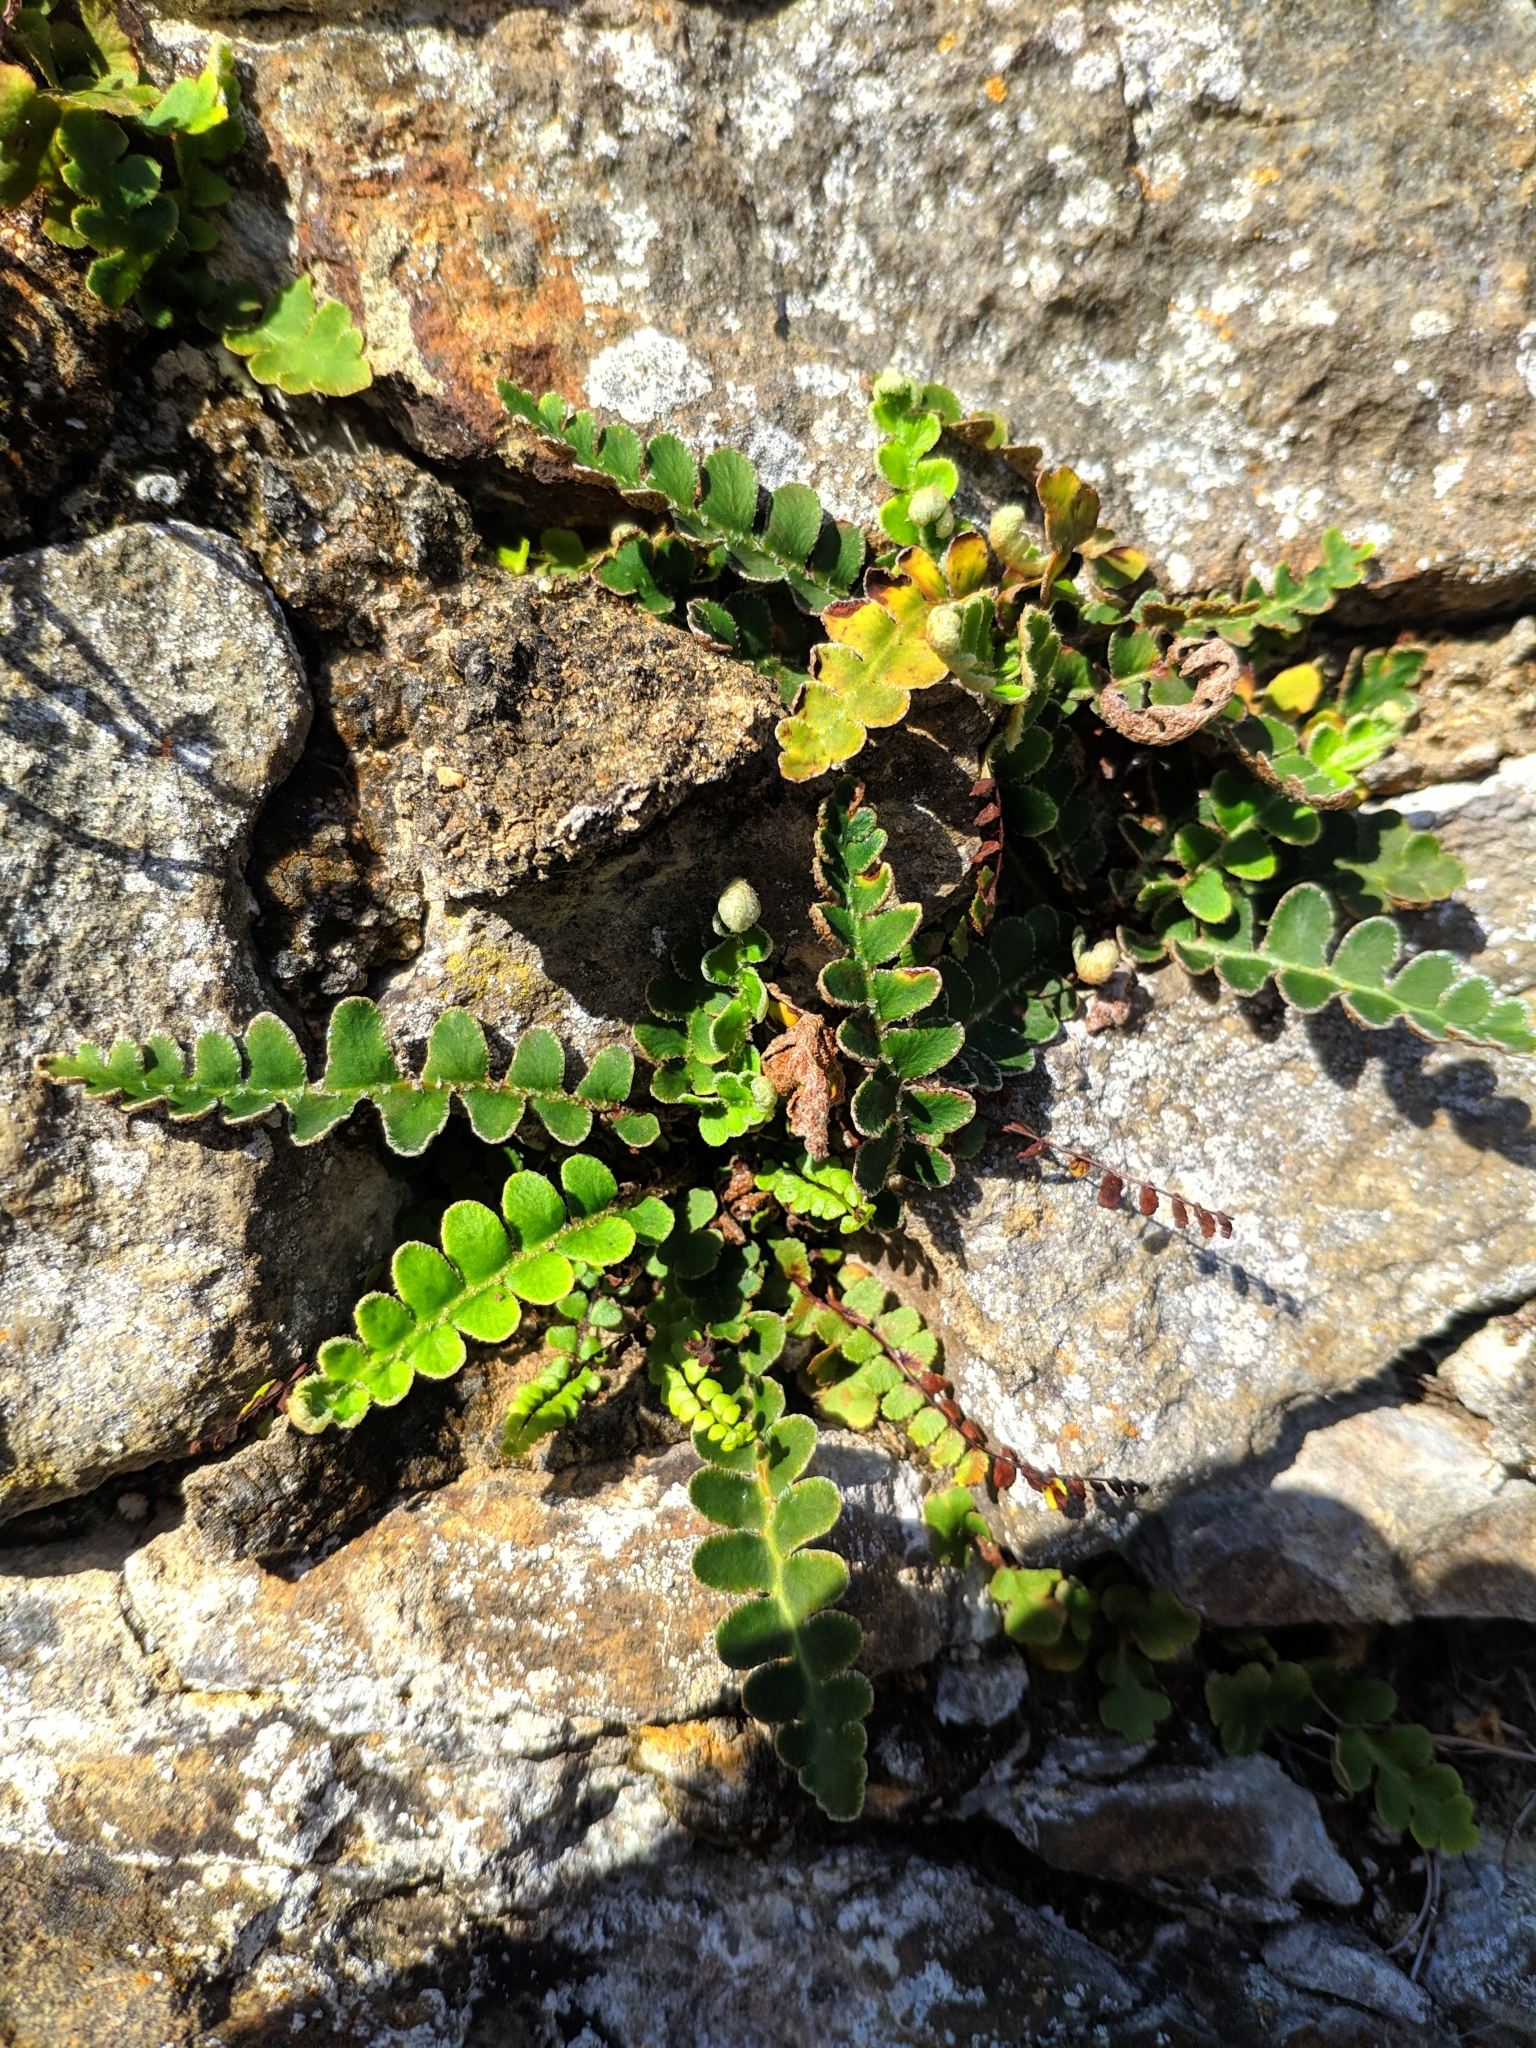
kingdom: Plantae
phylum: Tracheophyta
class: Polypodiopsida
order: Polypodiales
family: Aspleniaceae
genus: Asplenium
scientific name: Asplenium ceterach
